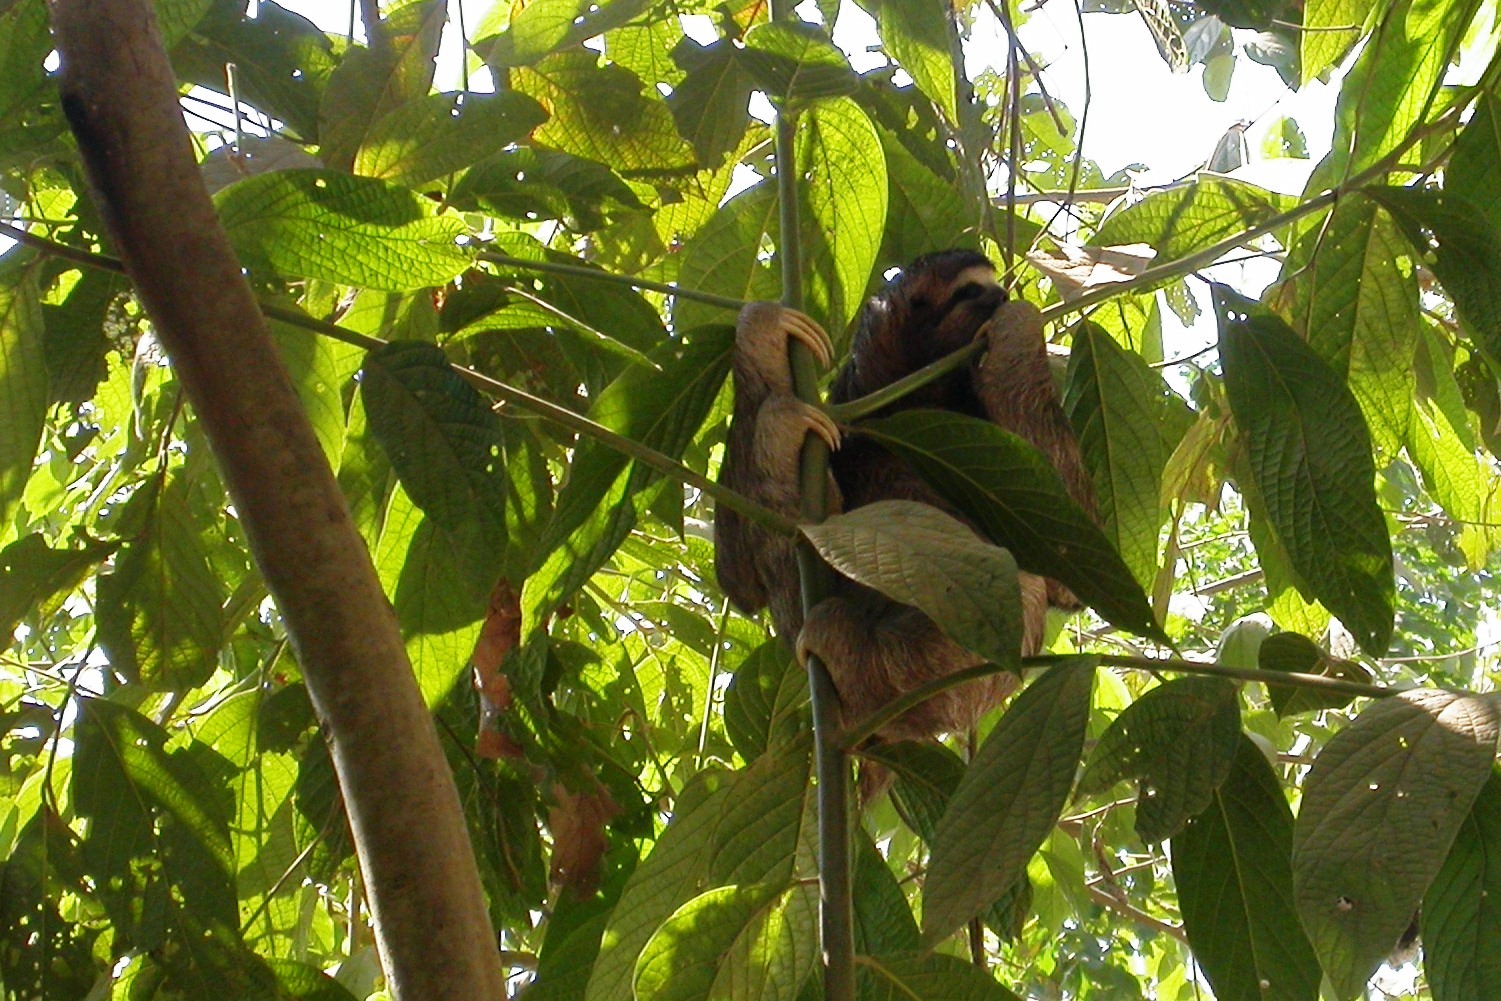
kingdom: Animalia
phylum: Chordata
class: Mammalia
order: Pilosa
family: Bradypodidae
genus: Bradypus
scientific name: Bradypus variegatus
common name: Brown-throated three-toed sloth
